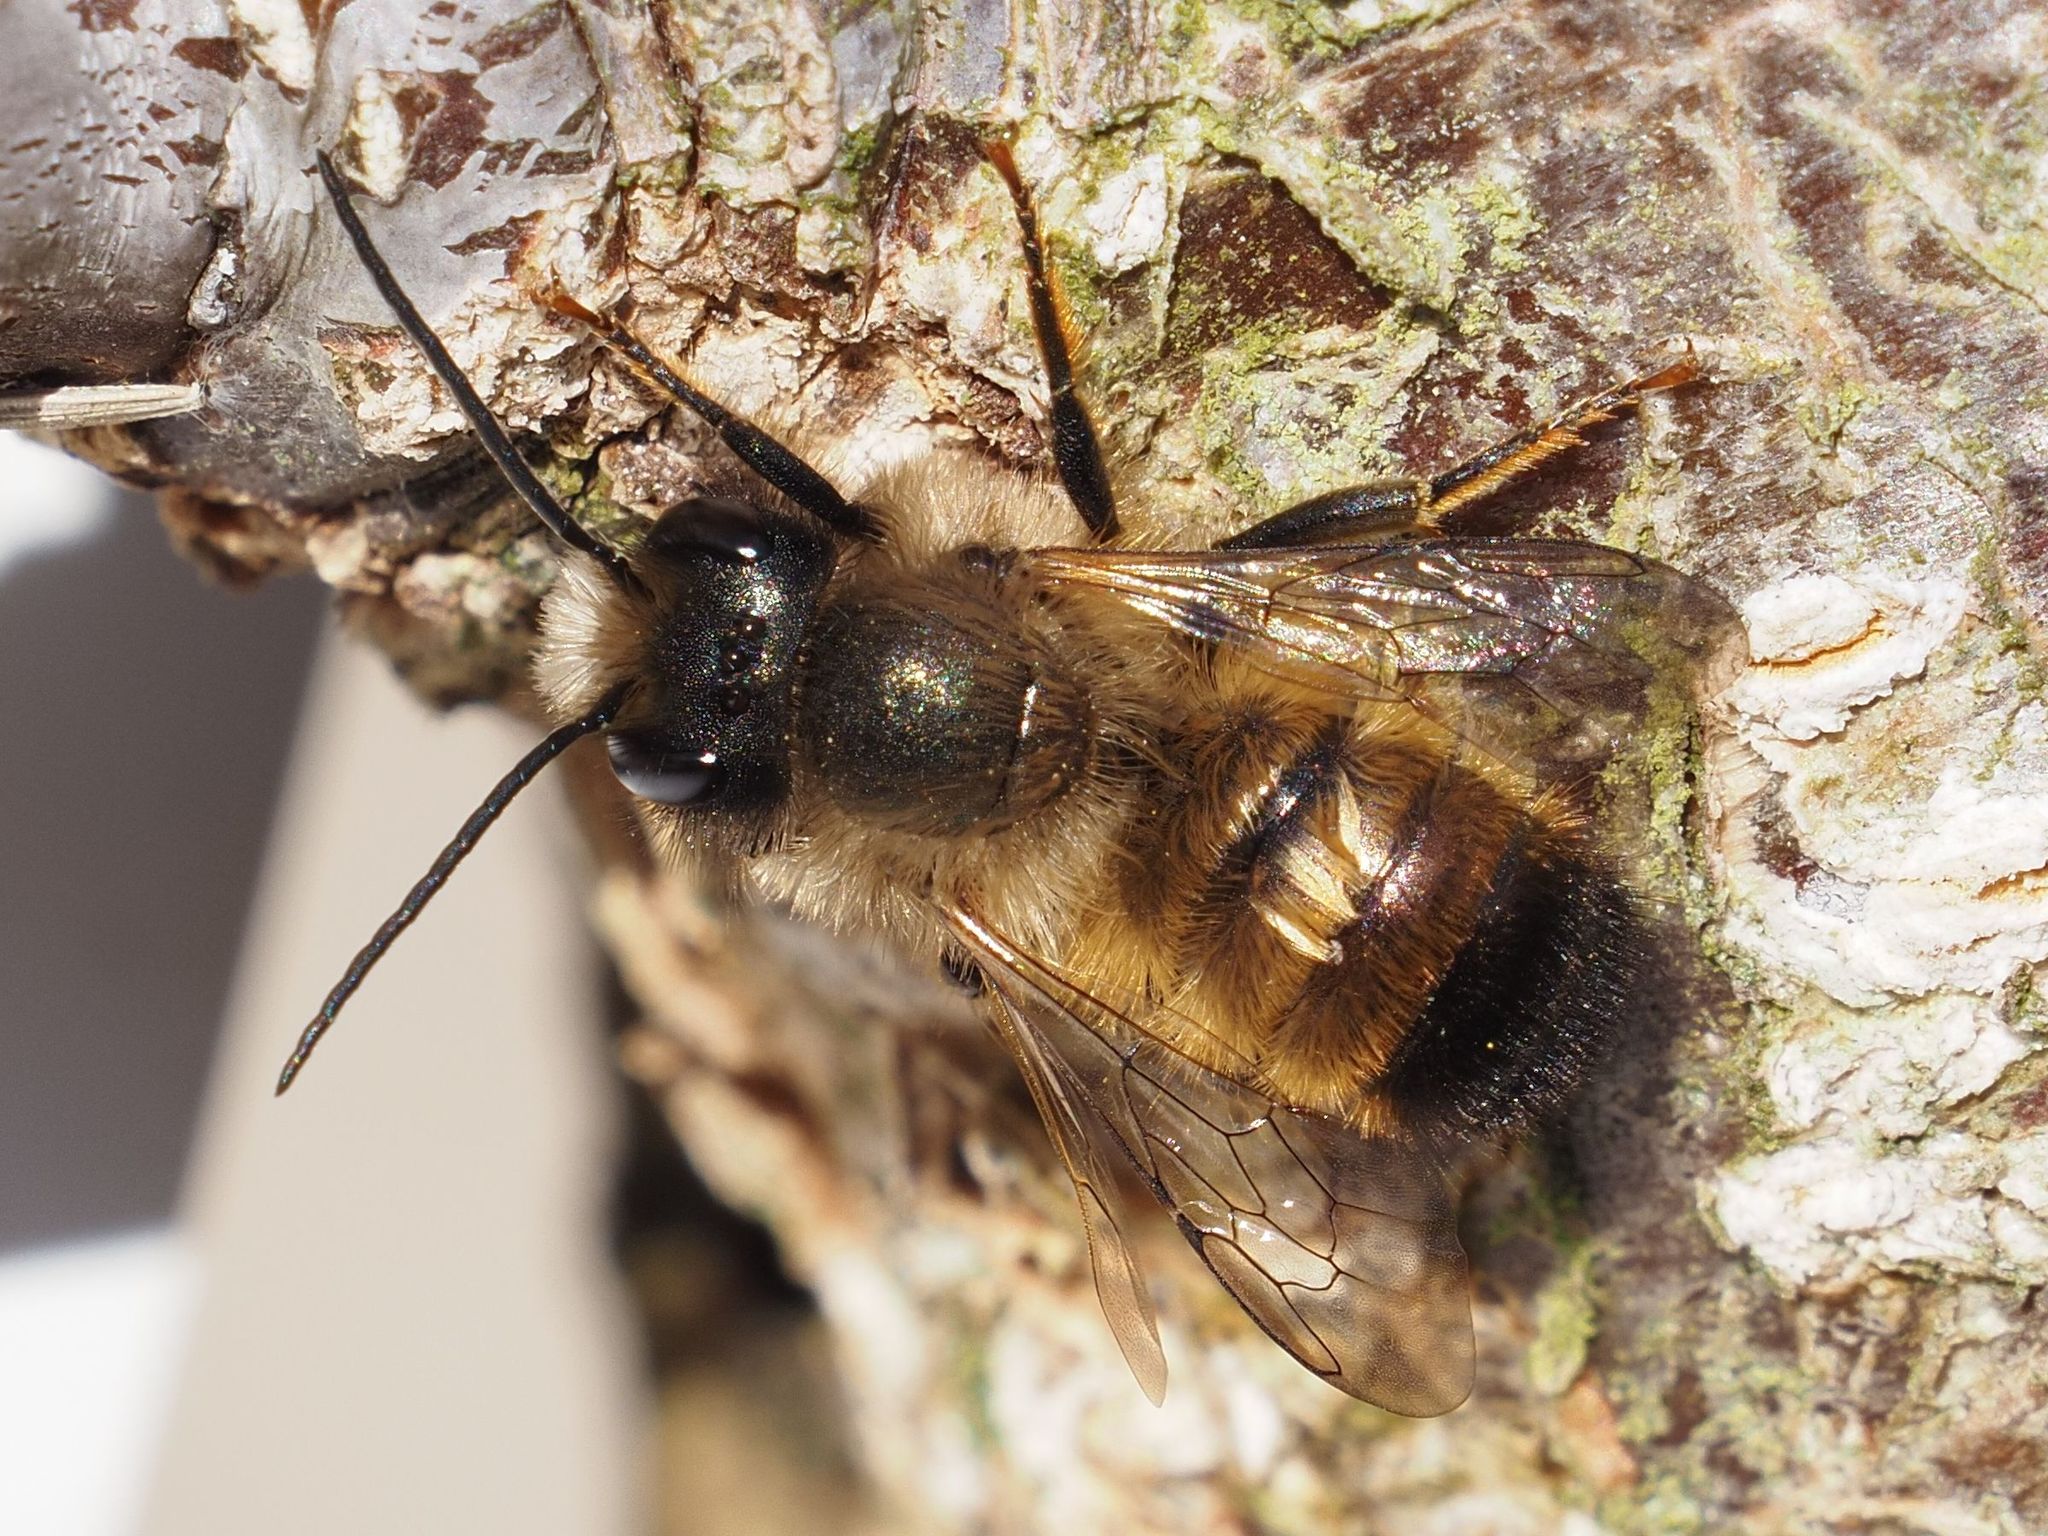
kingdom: Animalia
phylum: Arthropoda
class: Insecta
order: Hymenoptera
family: Megachilidae
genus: Osmia
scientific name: Osmia bicornis
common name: Red mason bee
